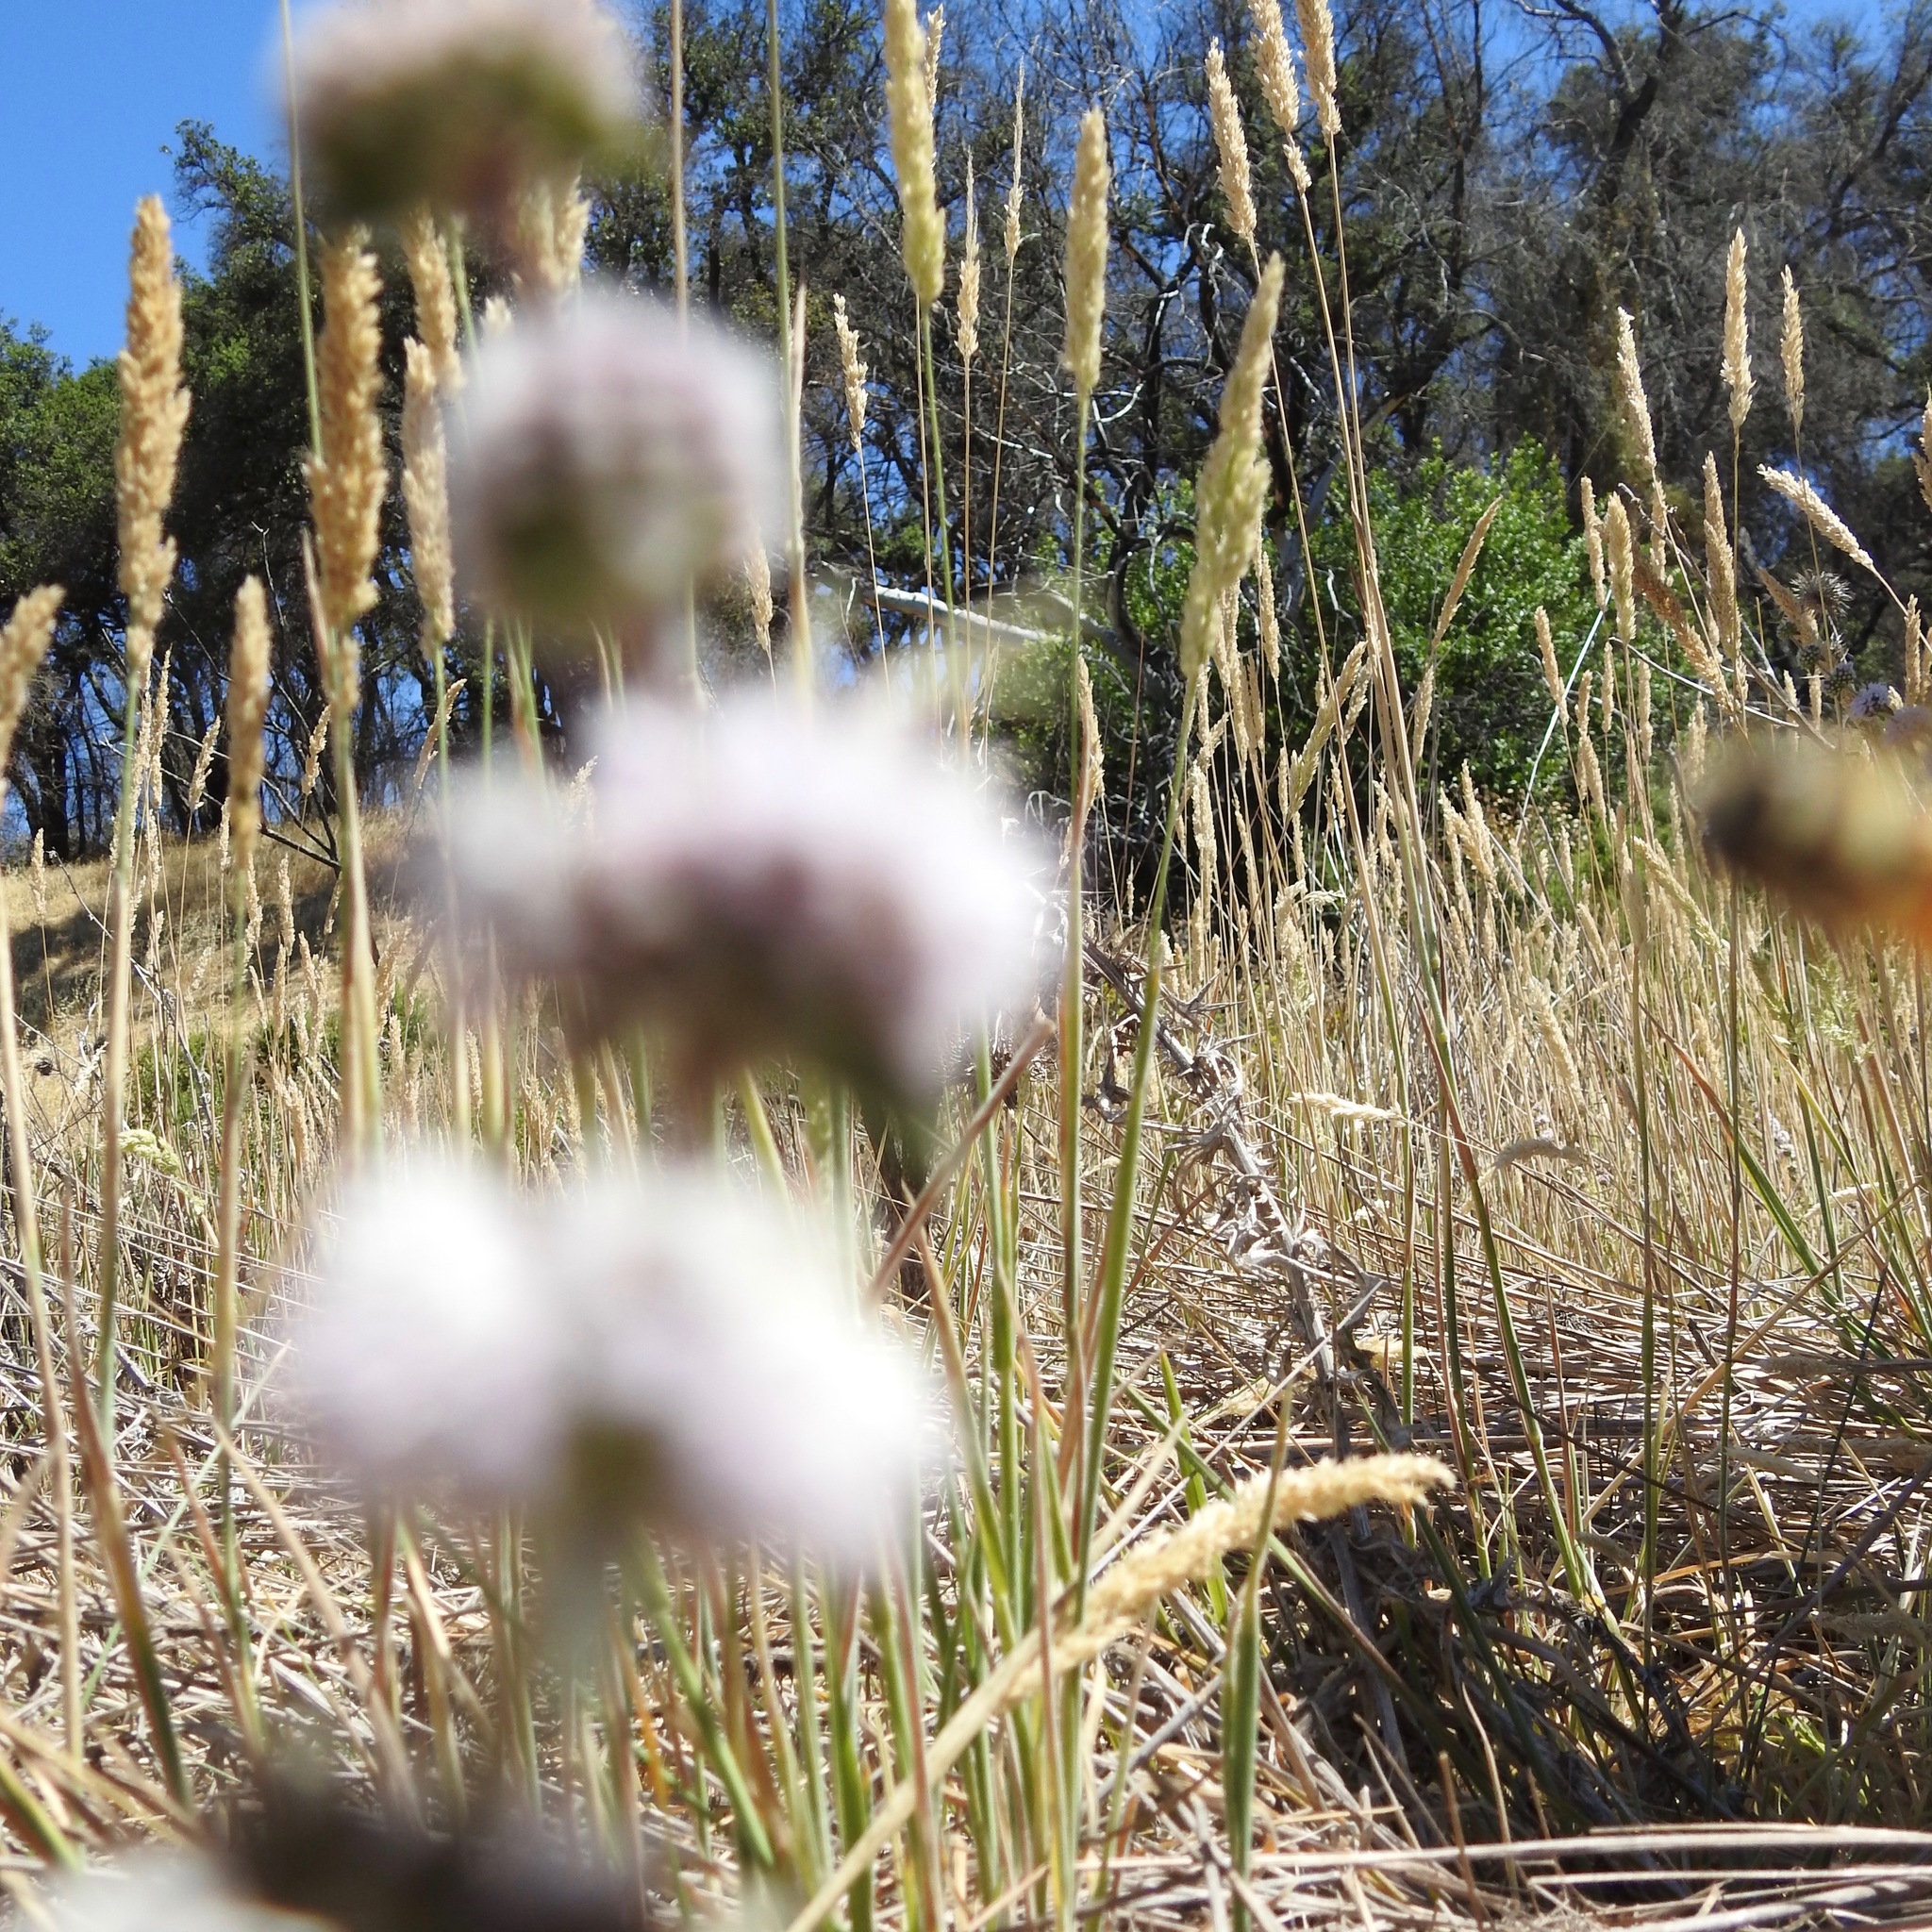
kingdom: Plantae
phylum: Tracheophyta
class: Liliopsida
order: Poales
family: Poaceae
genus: Holcus
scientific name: Holcus lanatus
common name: Yorkshire-fog
